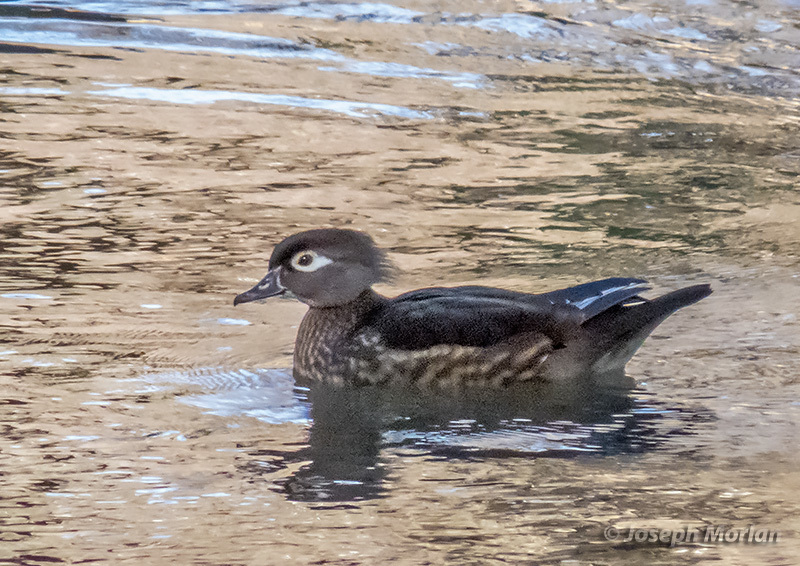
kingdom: Animalia
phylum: Chordata
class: Aves
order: Anseriformes
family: Anatidae
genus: Aix
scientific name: Aix sponsa
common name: Wood duck
